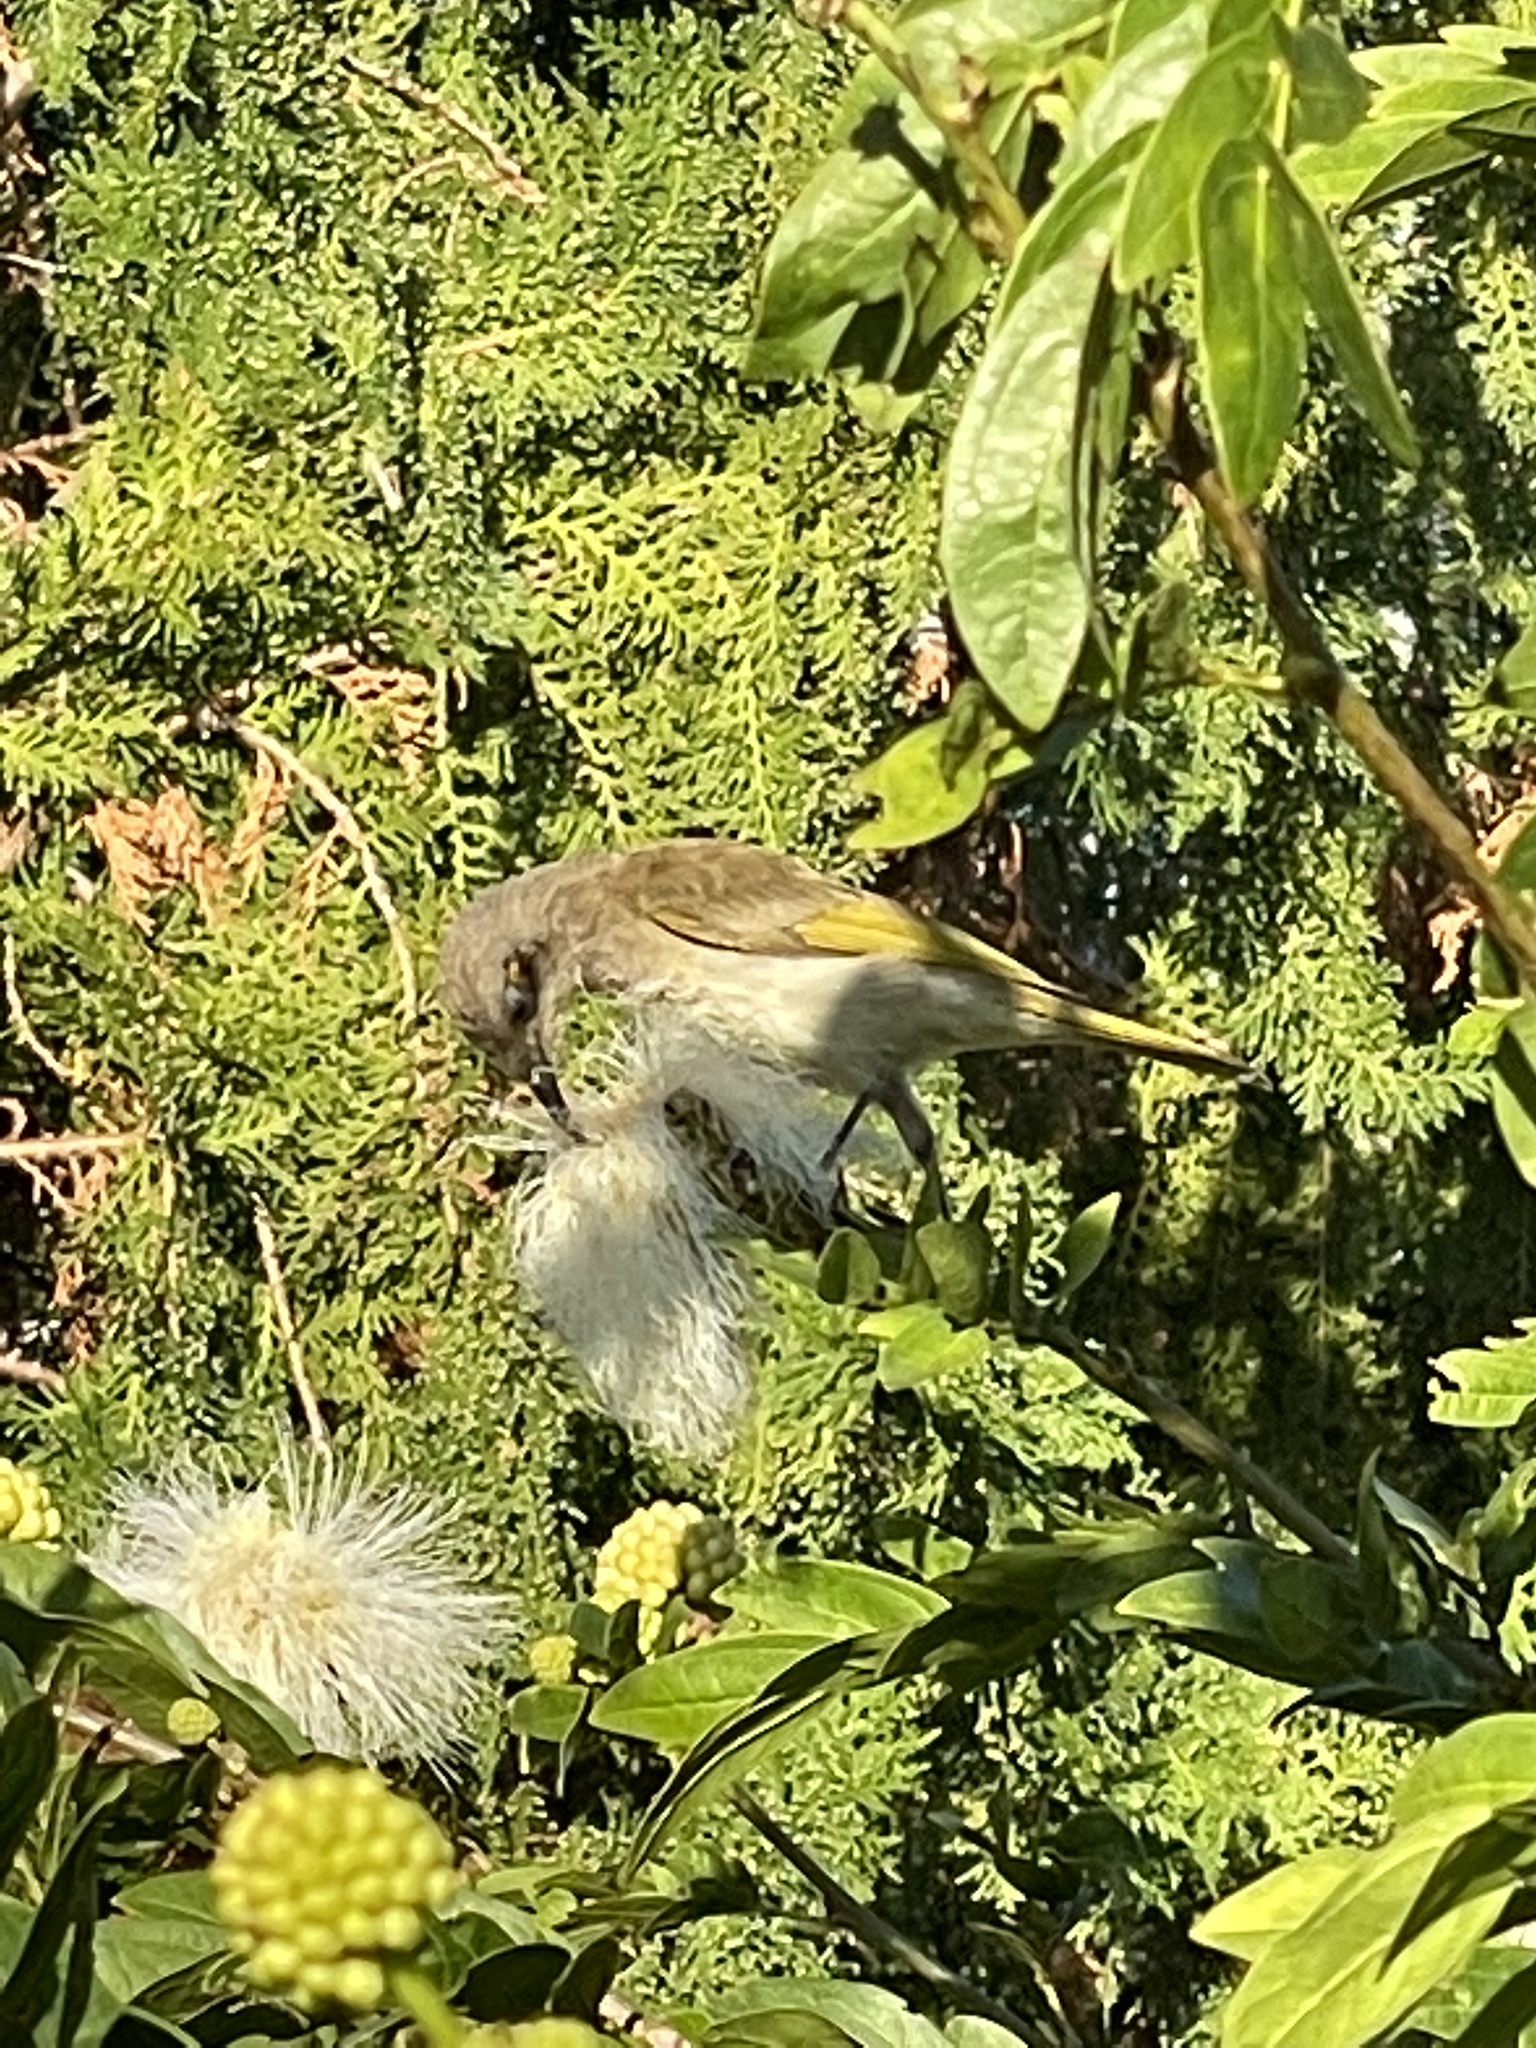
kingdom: Animalia
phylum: Chordata
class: Aves
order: Passeriformes
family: Meliphagidae
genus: Lichmera
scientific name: Lichmera indistincta
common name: Brown honeyeater
